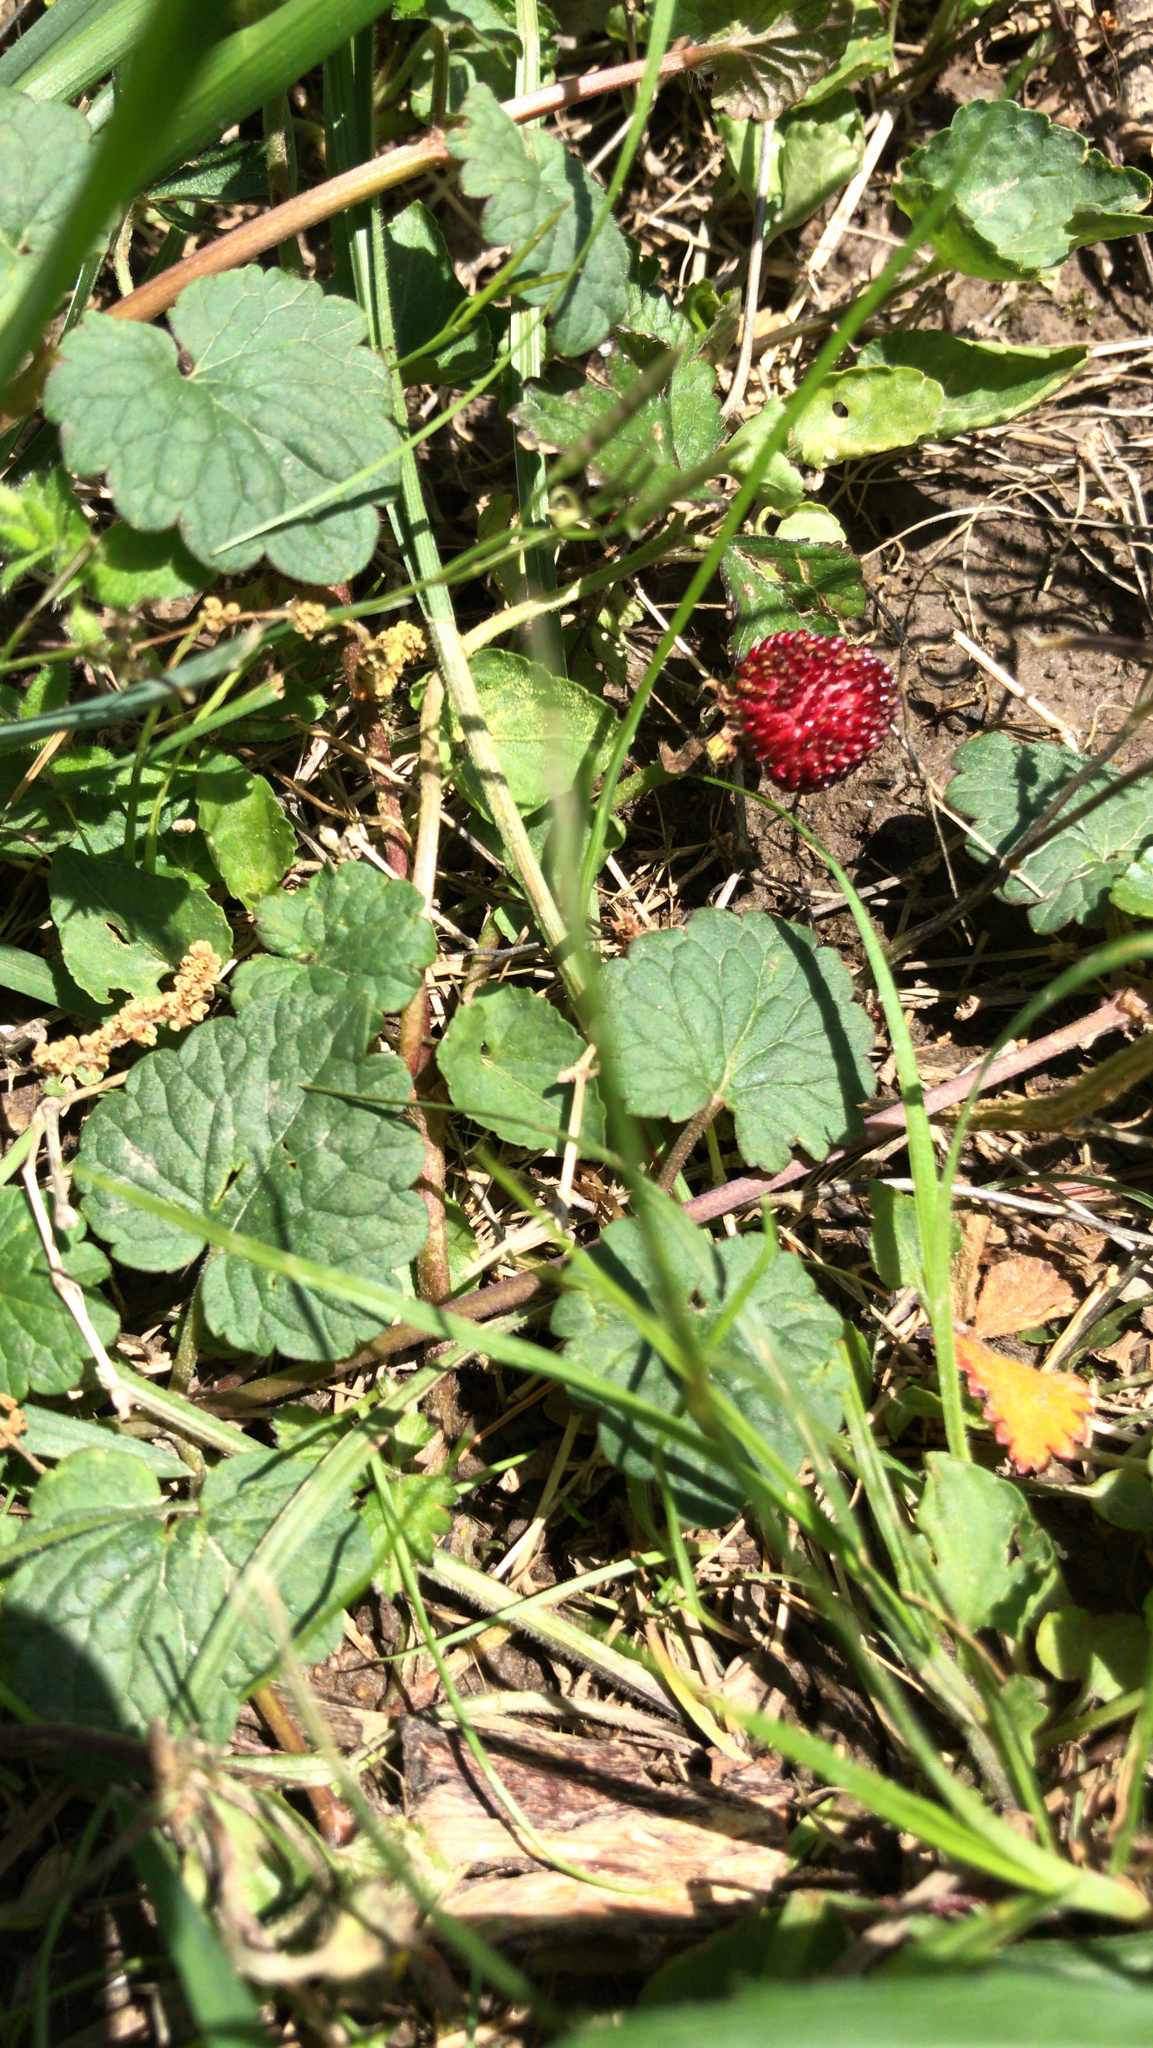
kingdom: Plantae
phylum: Tracheophyta
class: Magnoliopsida
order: Rosales
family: Rosaceae
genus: Potentilla
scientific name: Potentilla indica
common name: Yellow-flowered strawberry
